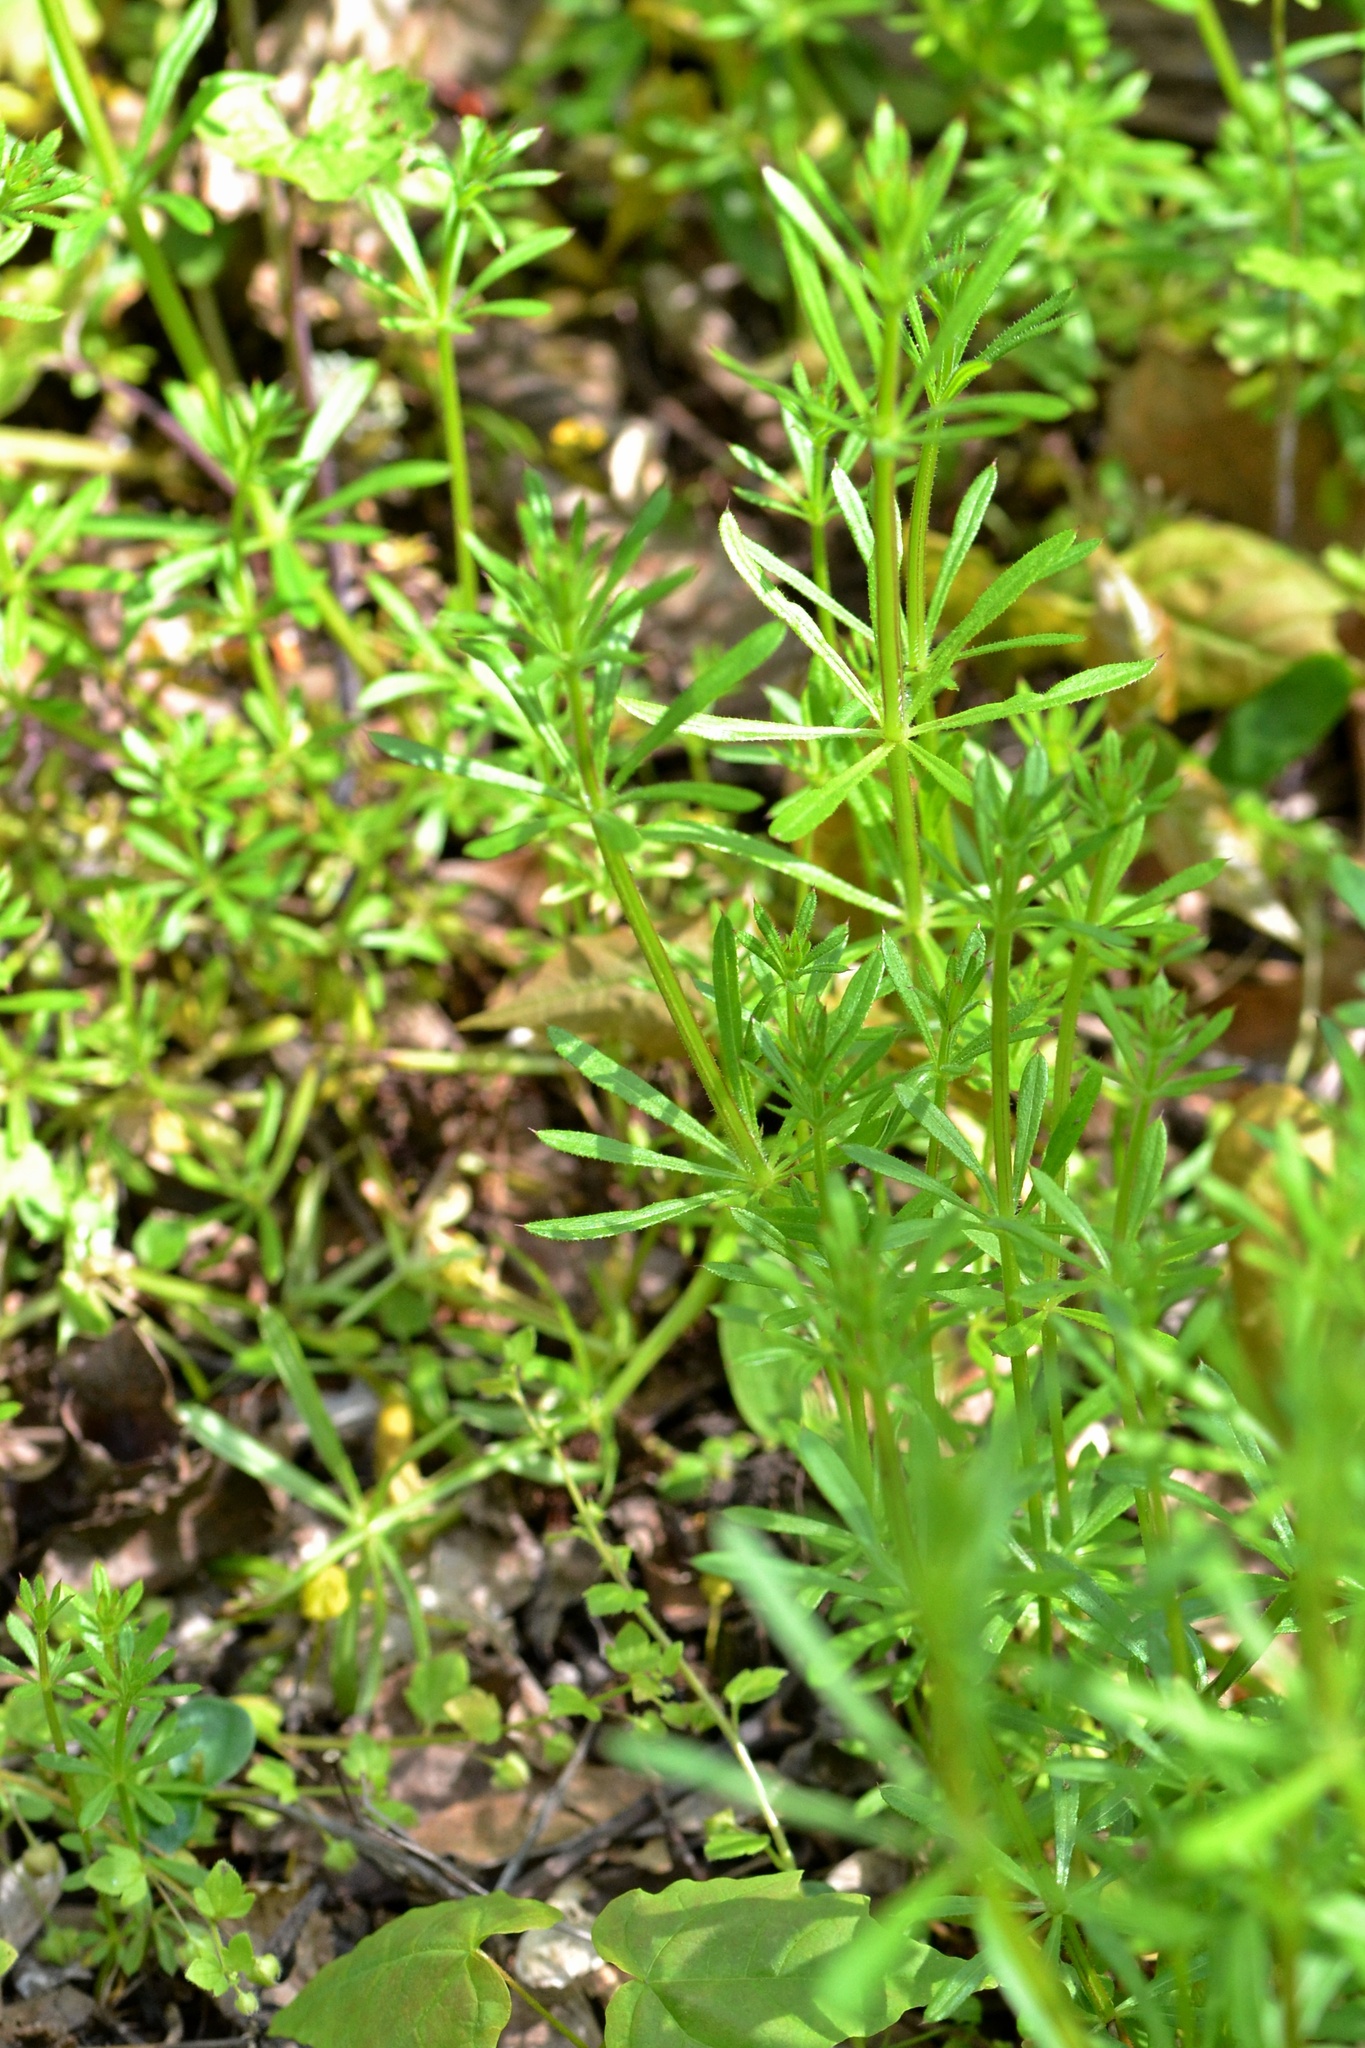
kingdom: Plantae
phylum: Tracheophyta
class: Magnoliopsida
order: Gentianales
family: Rubiaceae
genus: Galium
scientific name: Galium aparine
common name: Cleavers
